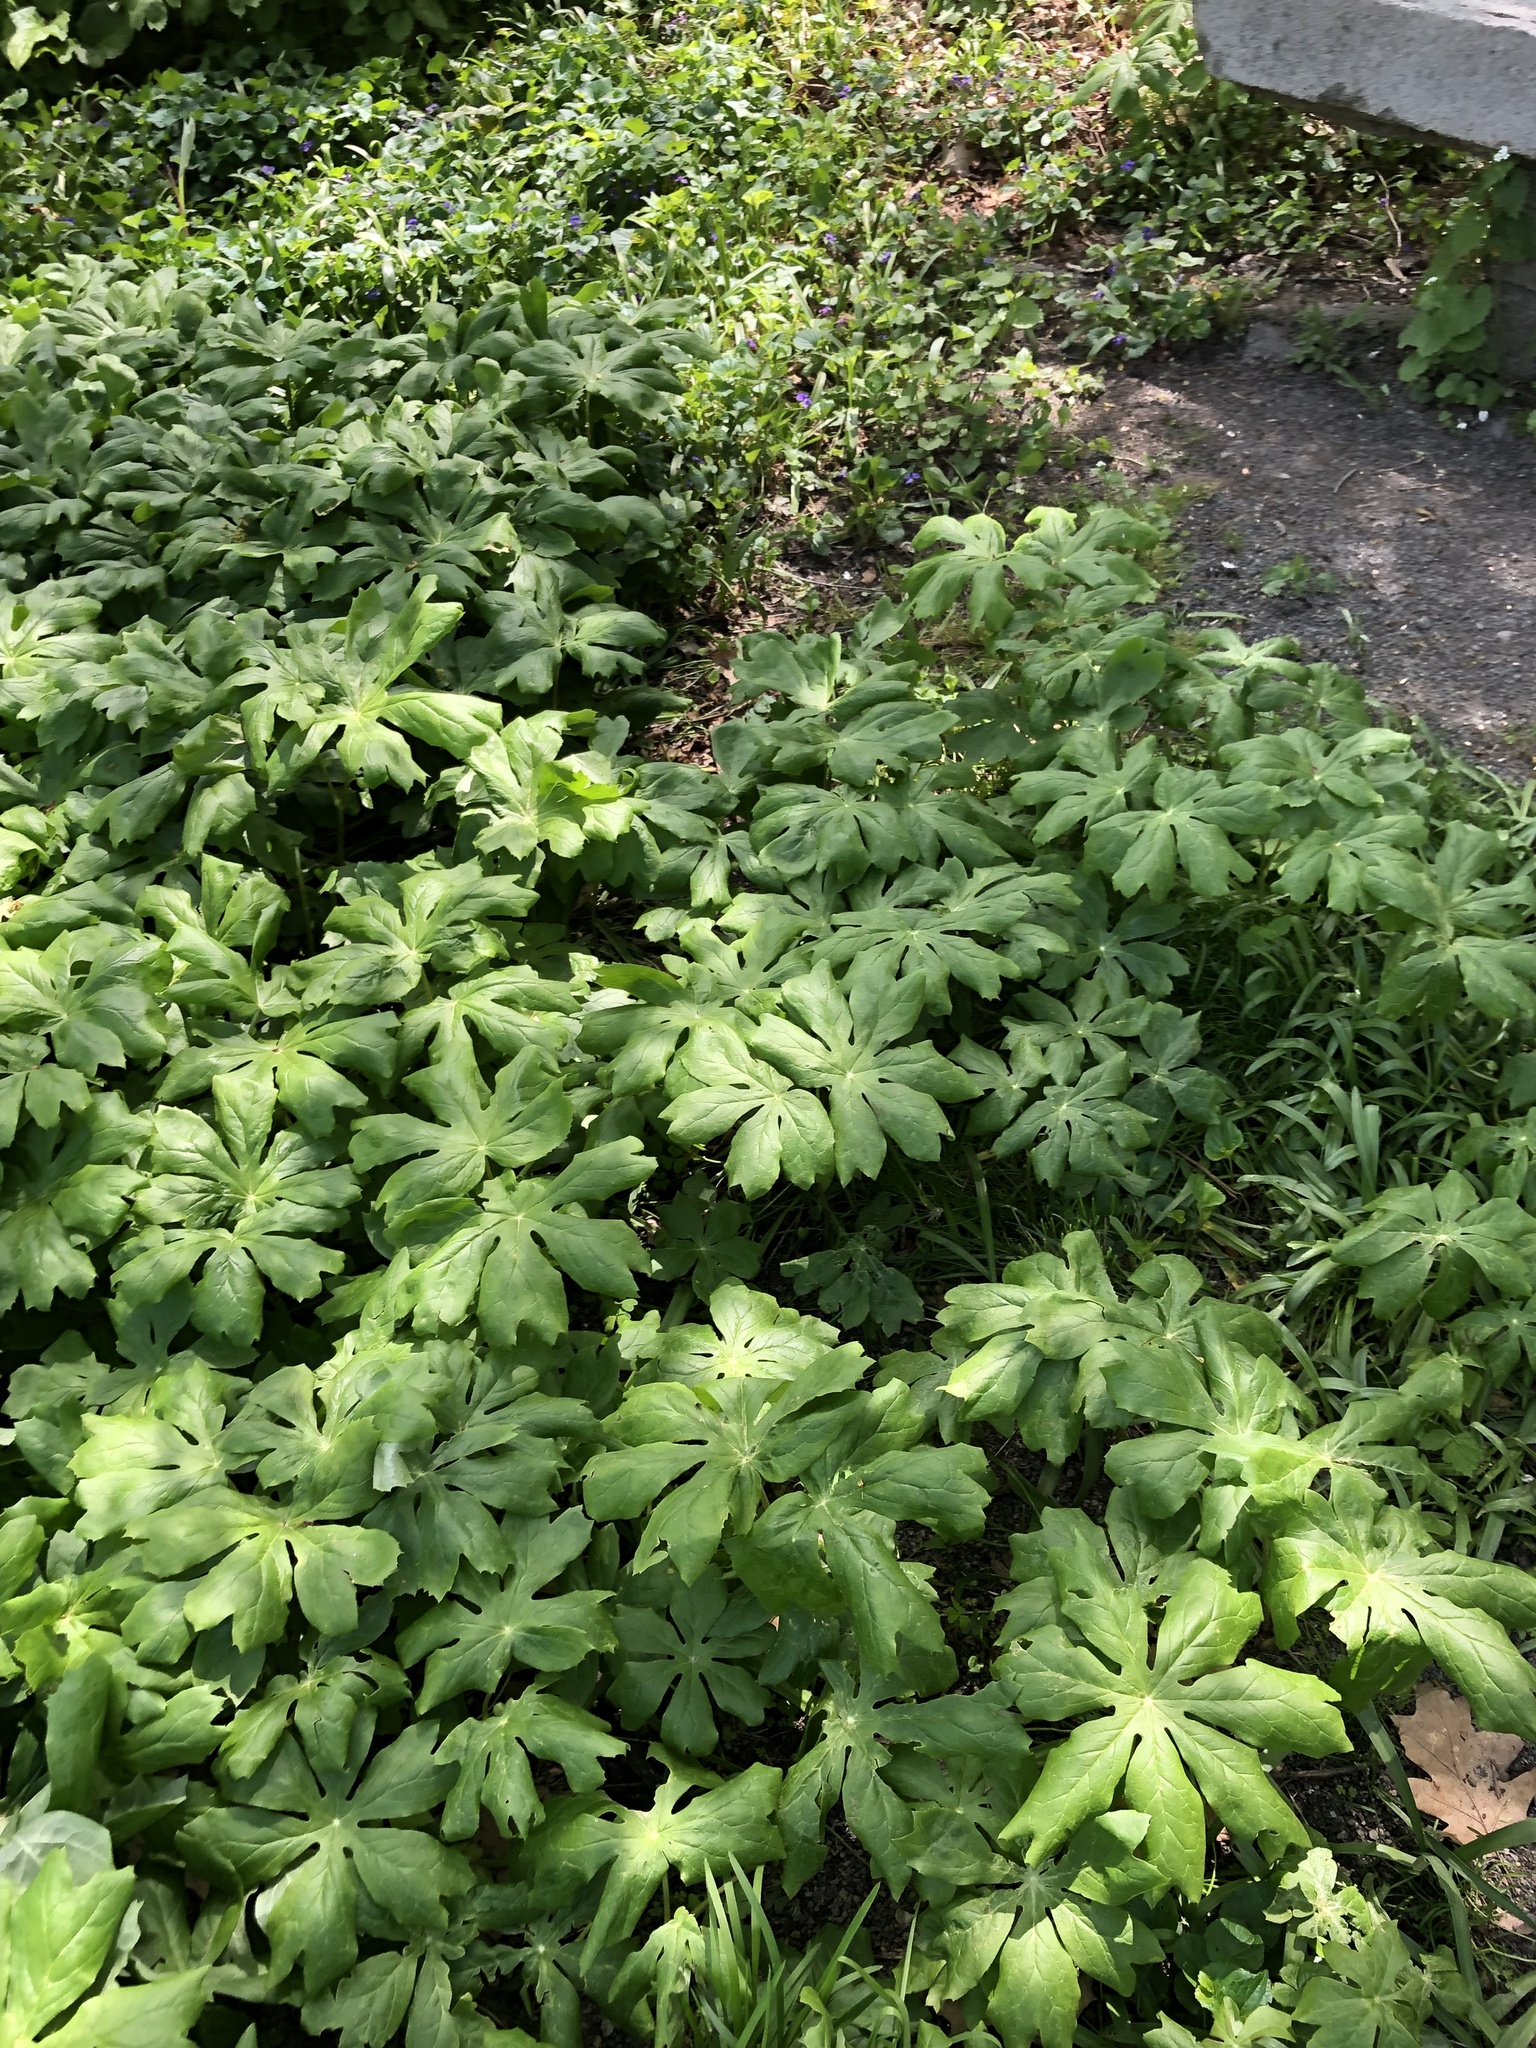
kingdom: Plantae
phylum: Tracheophyta
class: Magnoliopsida
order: Ranunculales
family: Berberidaceae
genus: Podophyllum
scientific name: Podophyllum peltatum
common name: Wild mandrake
